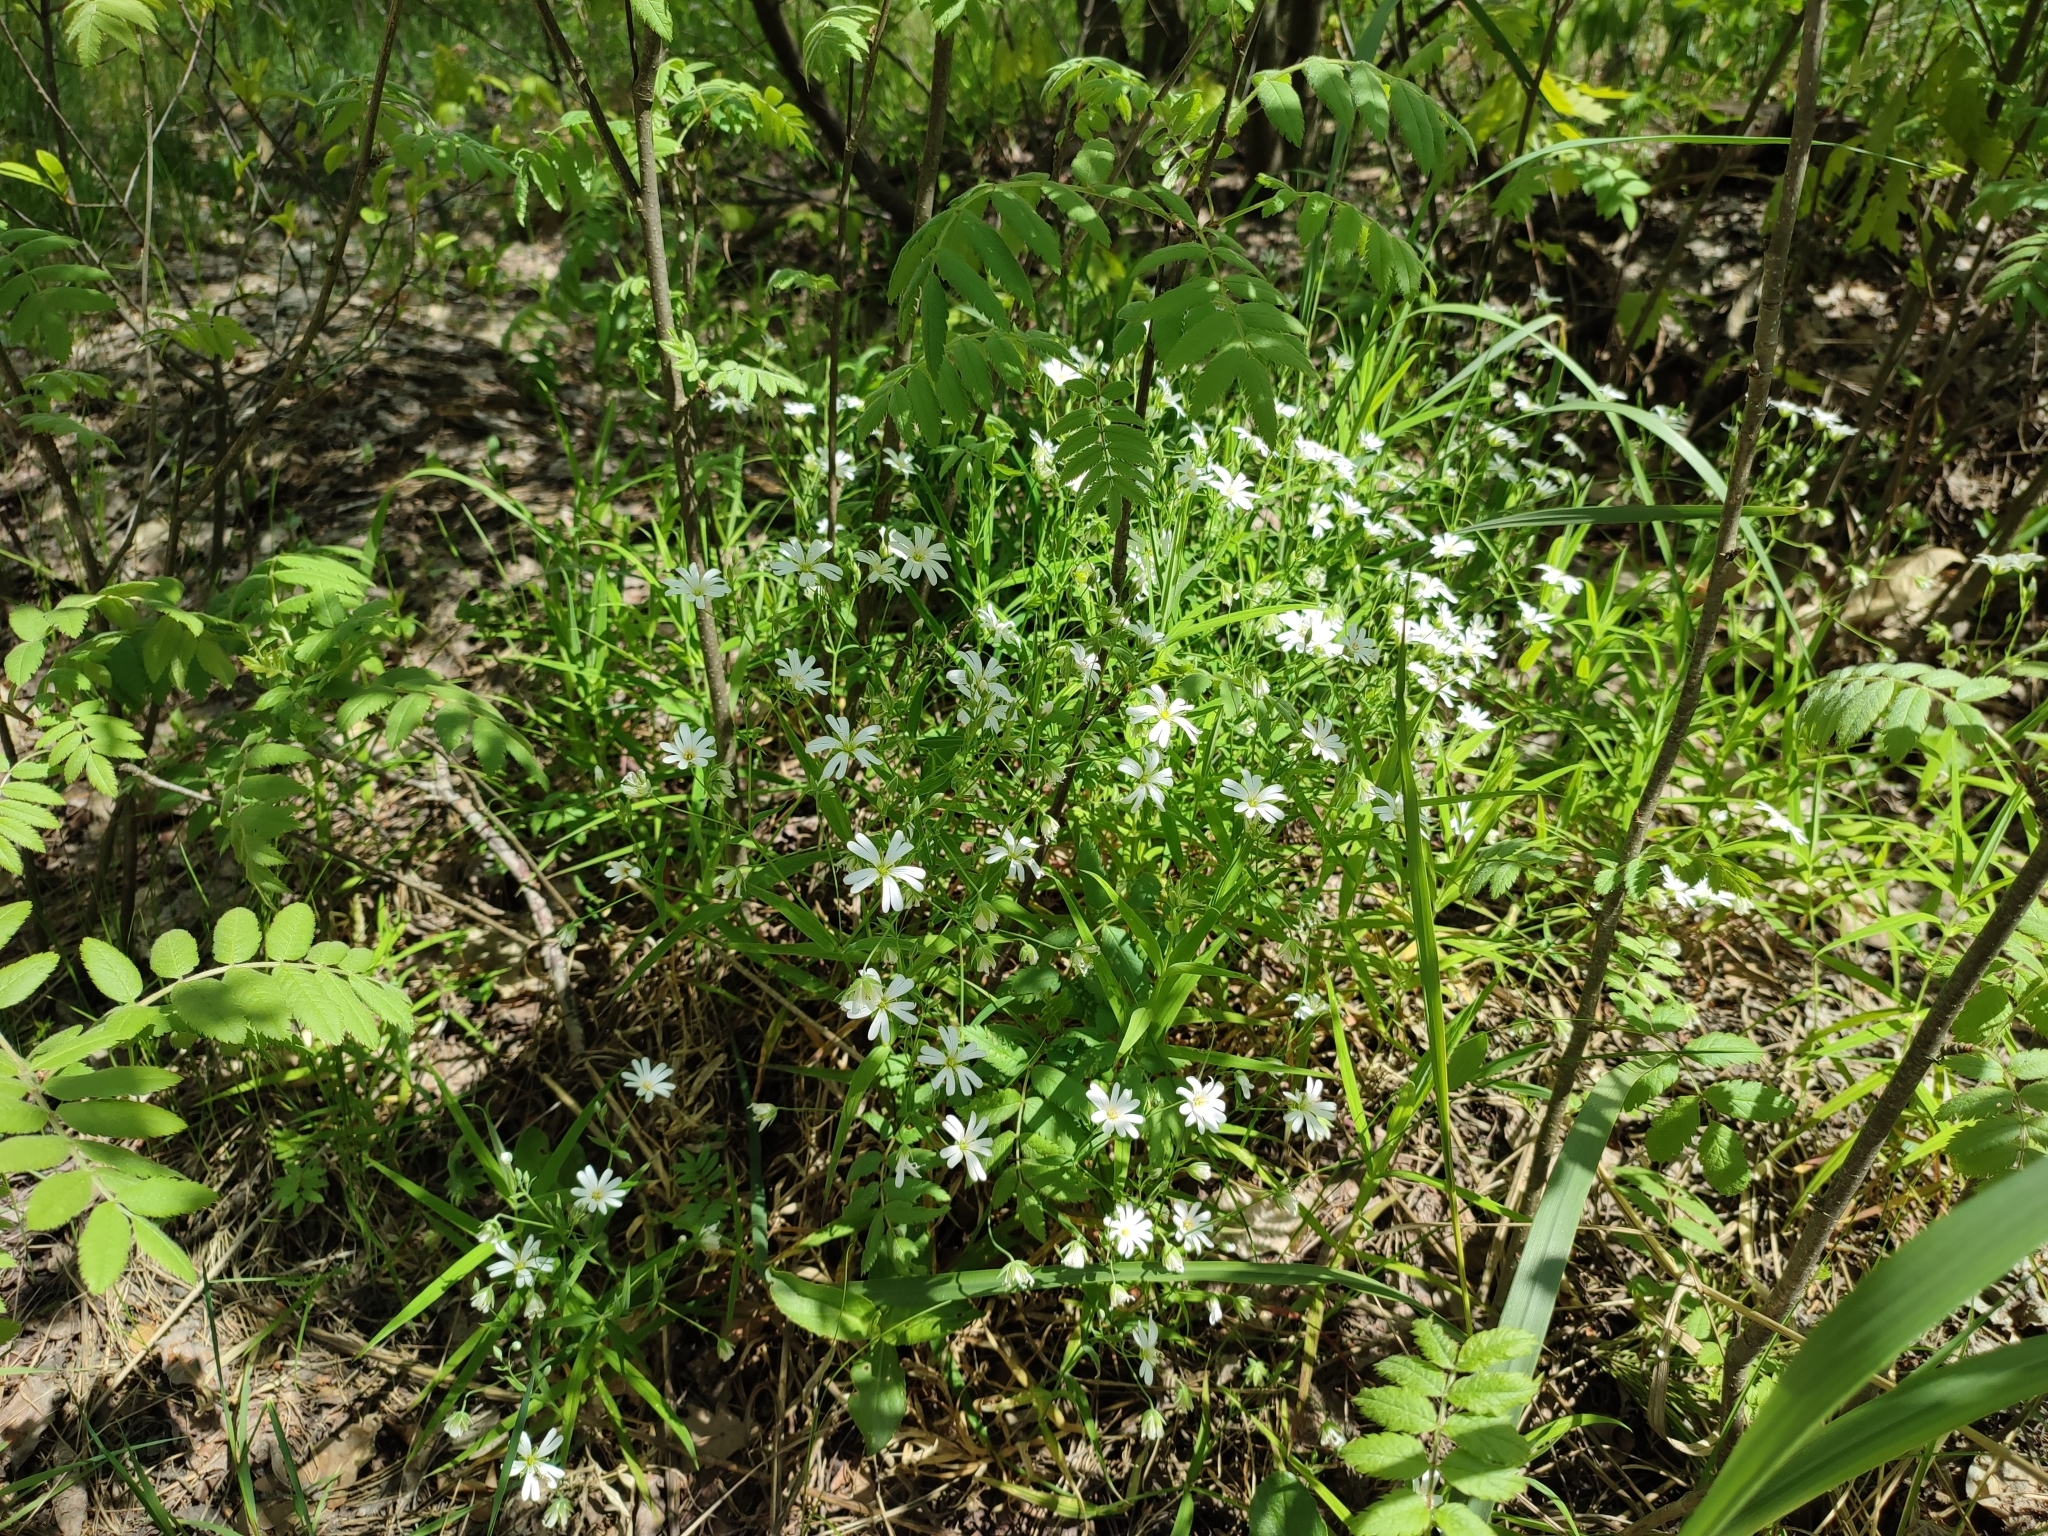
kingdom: Plantae
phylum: Tracheophyta
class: Magnoliopsida
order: Caryophyllales
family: Caryophyllaceae
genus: Rabelera
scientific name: Rabelera holostea
